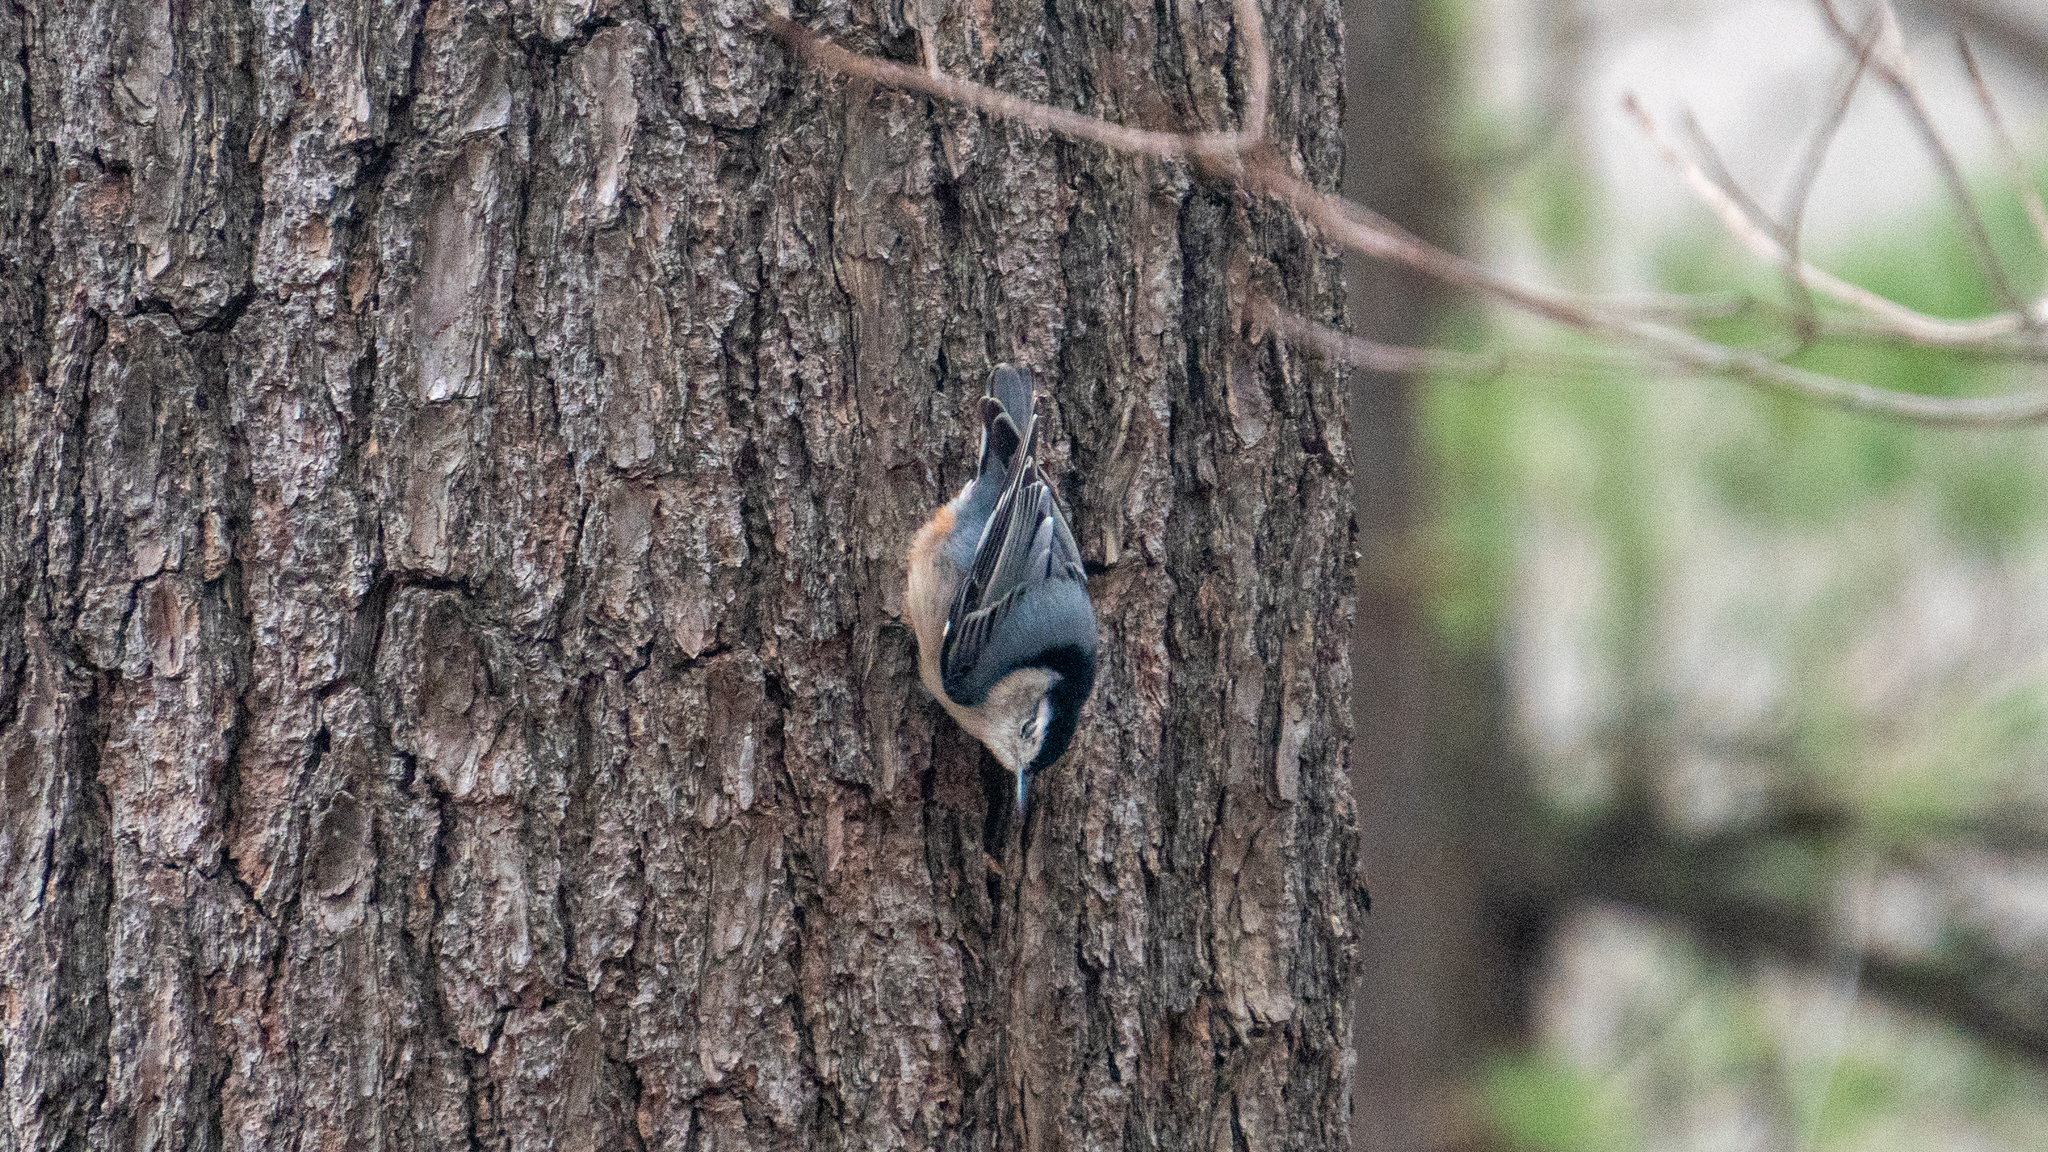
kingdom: Animalia
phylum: Chordata
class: Aves
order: Passeriformes
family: Sittidae
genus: Sitta
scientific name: Sitta carolinensis
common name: White-breasted nuthatch
